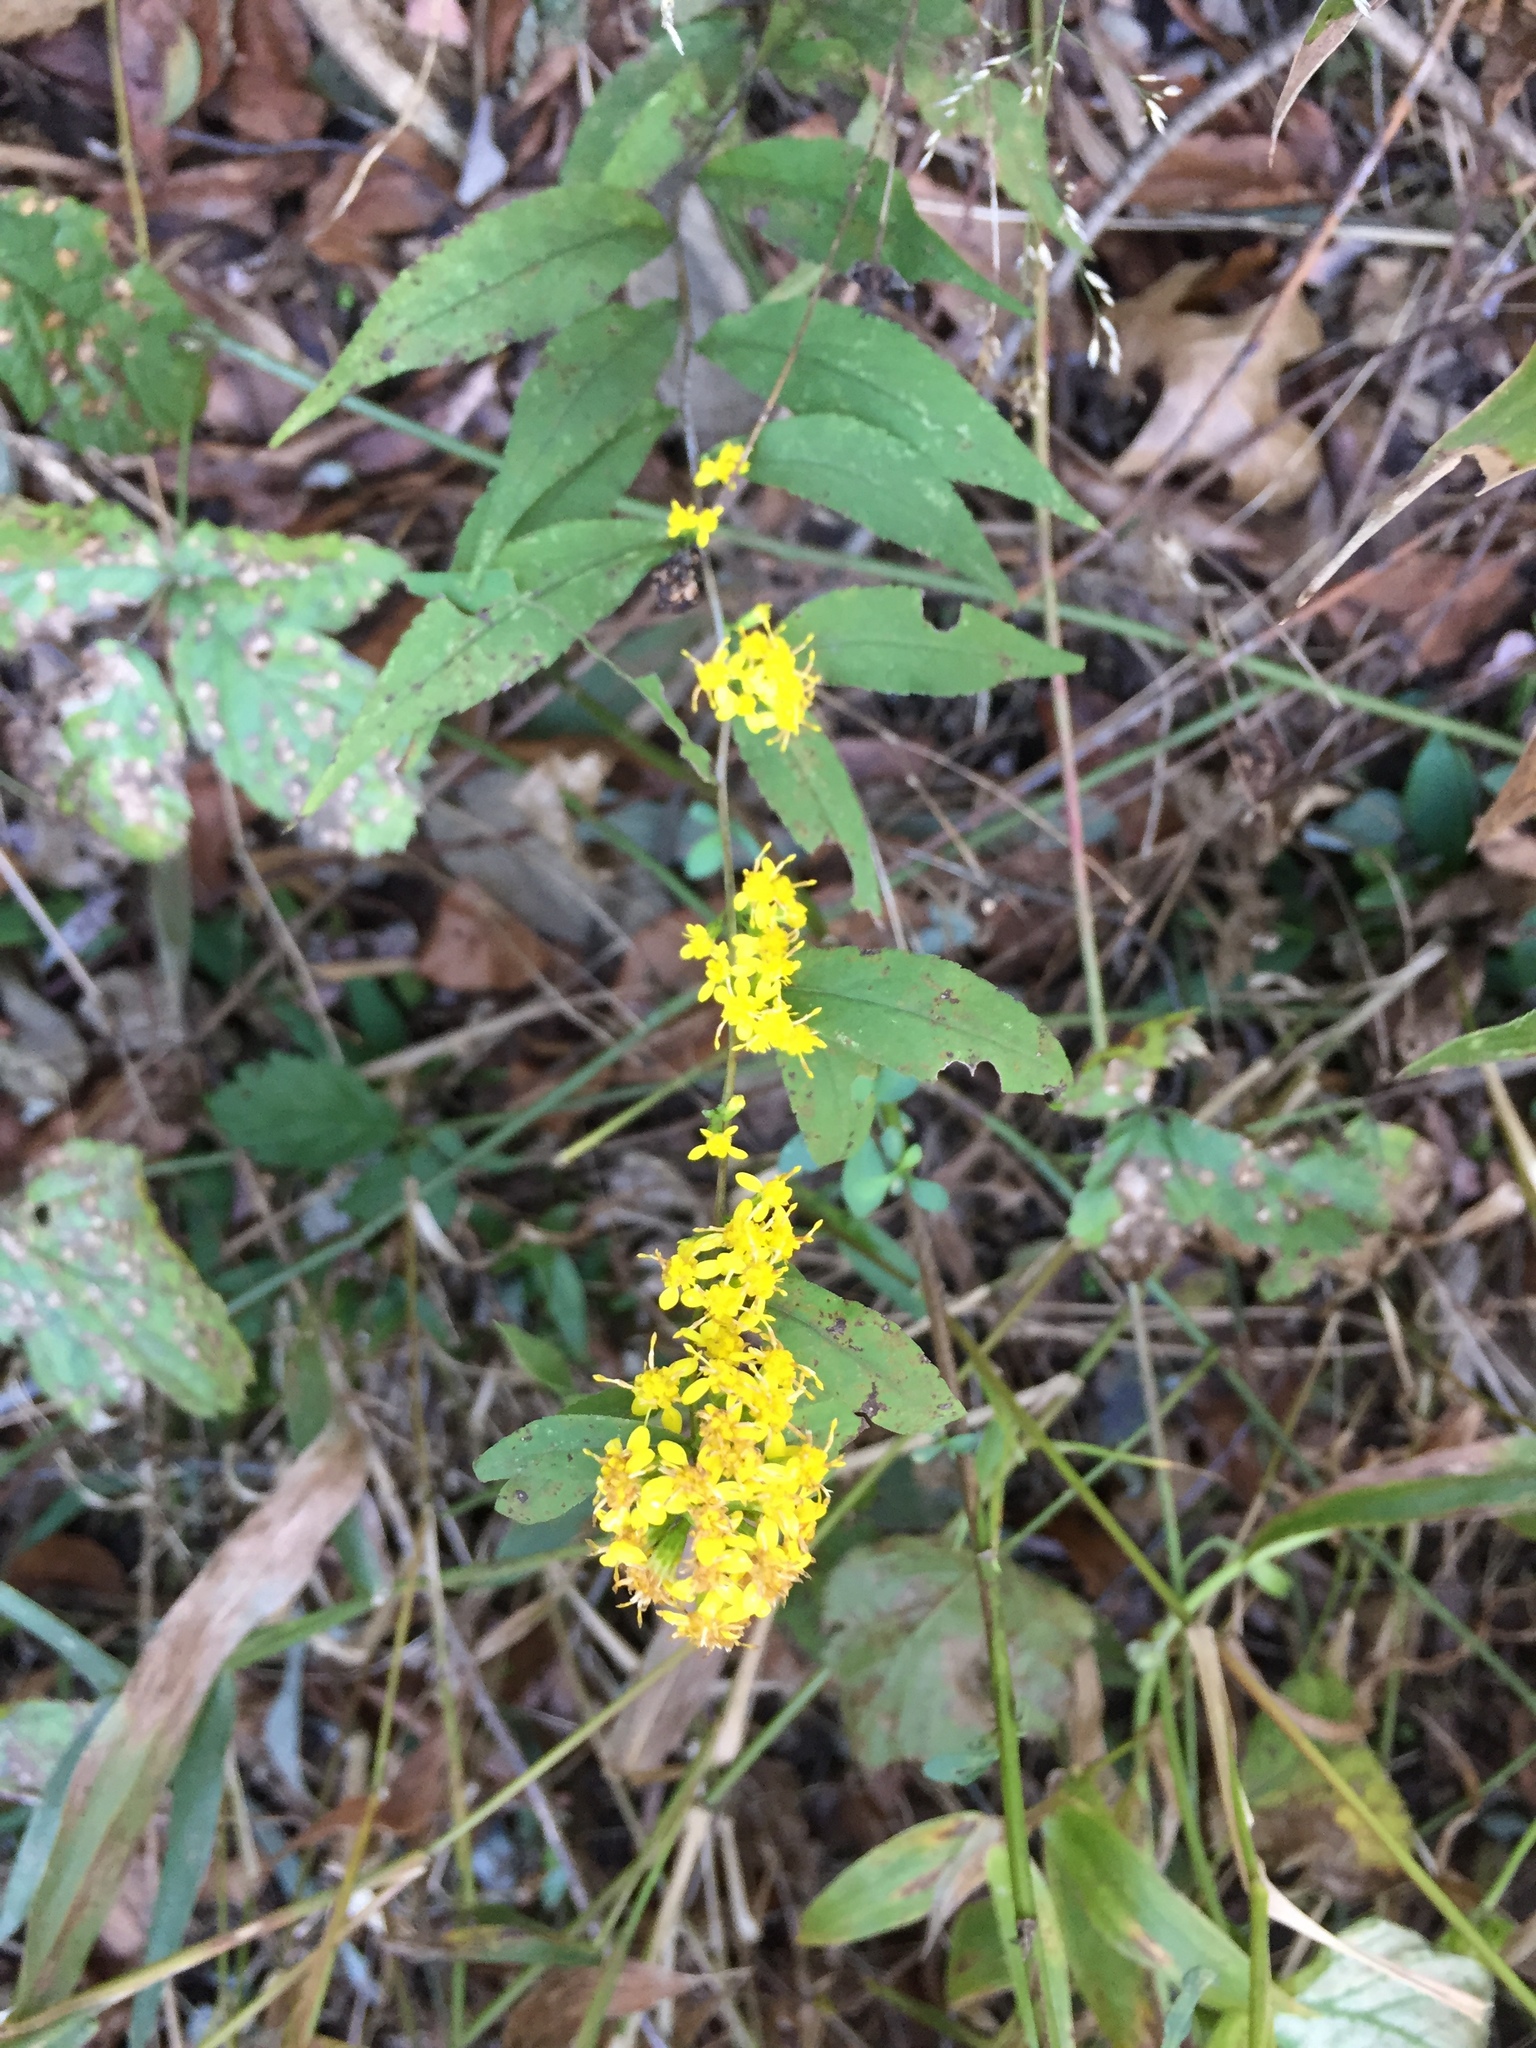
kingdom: Plantae
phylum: Tracheophyta
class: Magnoliopsida
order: Asterales
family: Asteraceae
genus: Solidago
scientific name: Solidago caesia
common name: Woodland goldenrod
